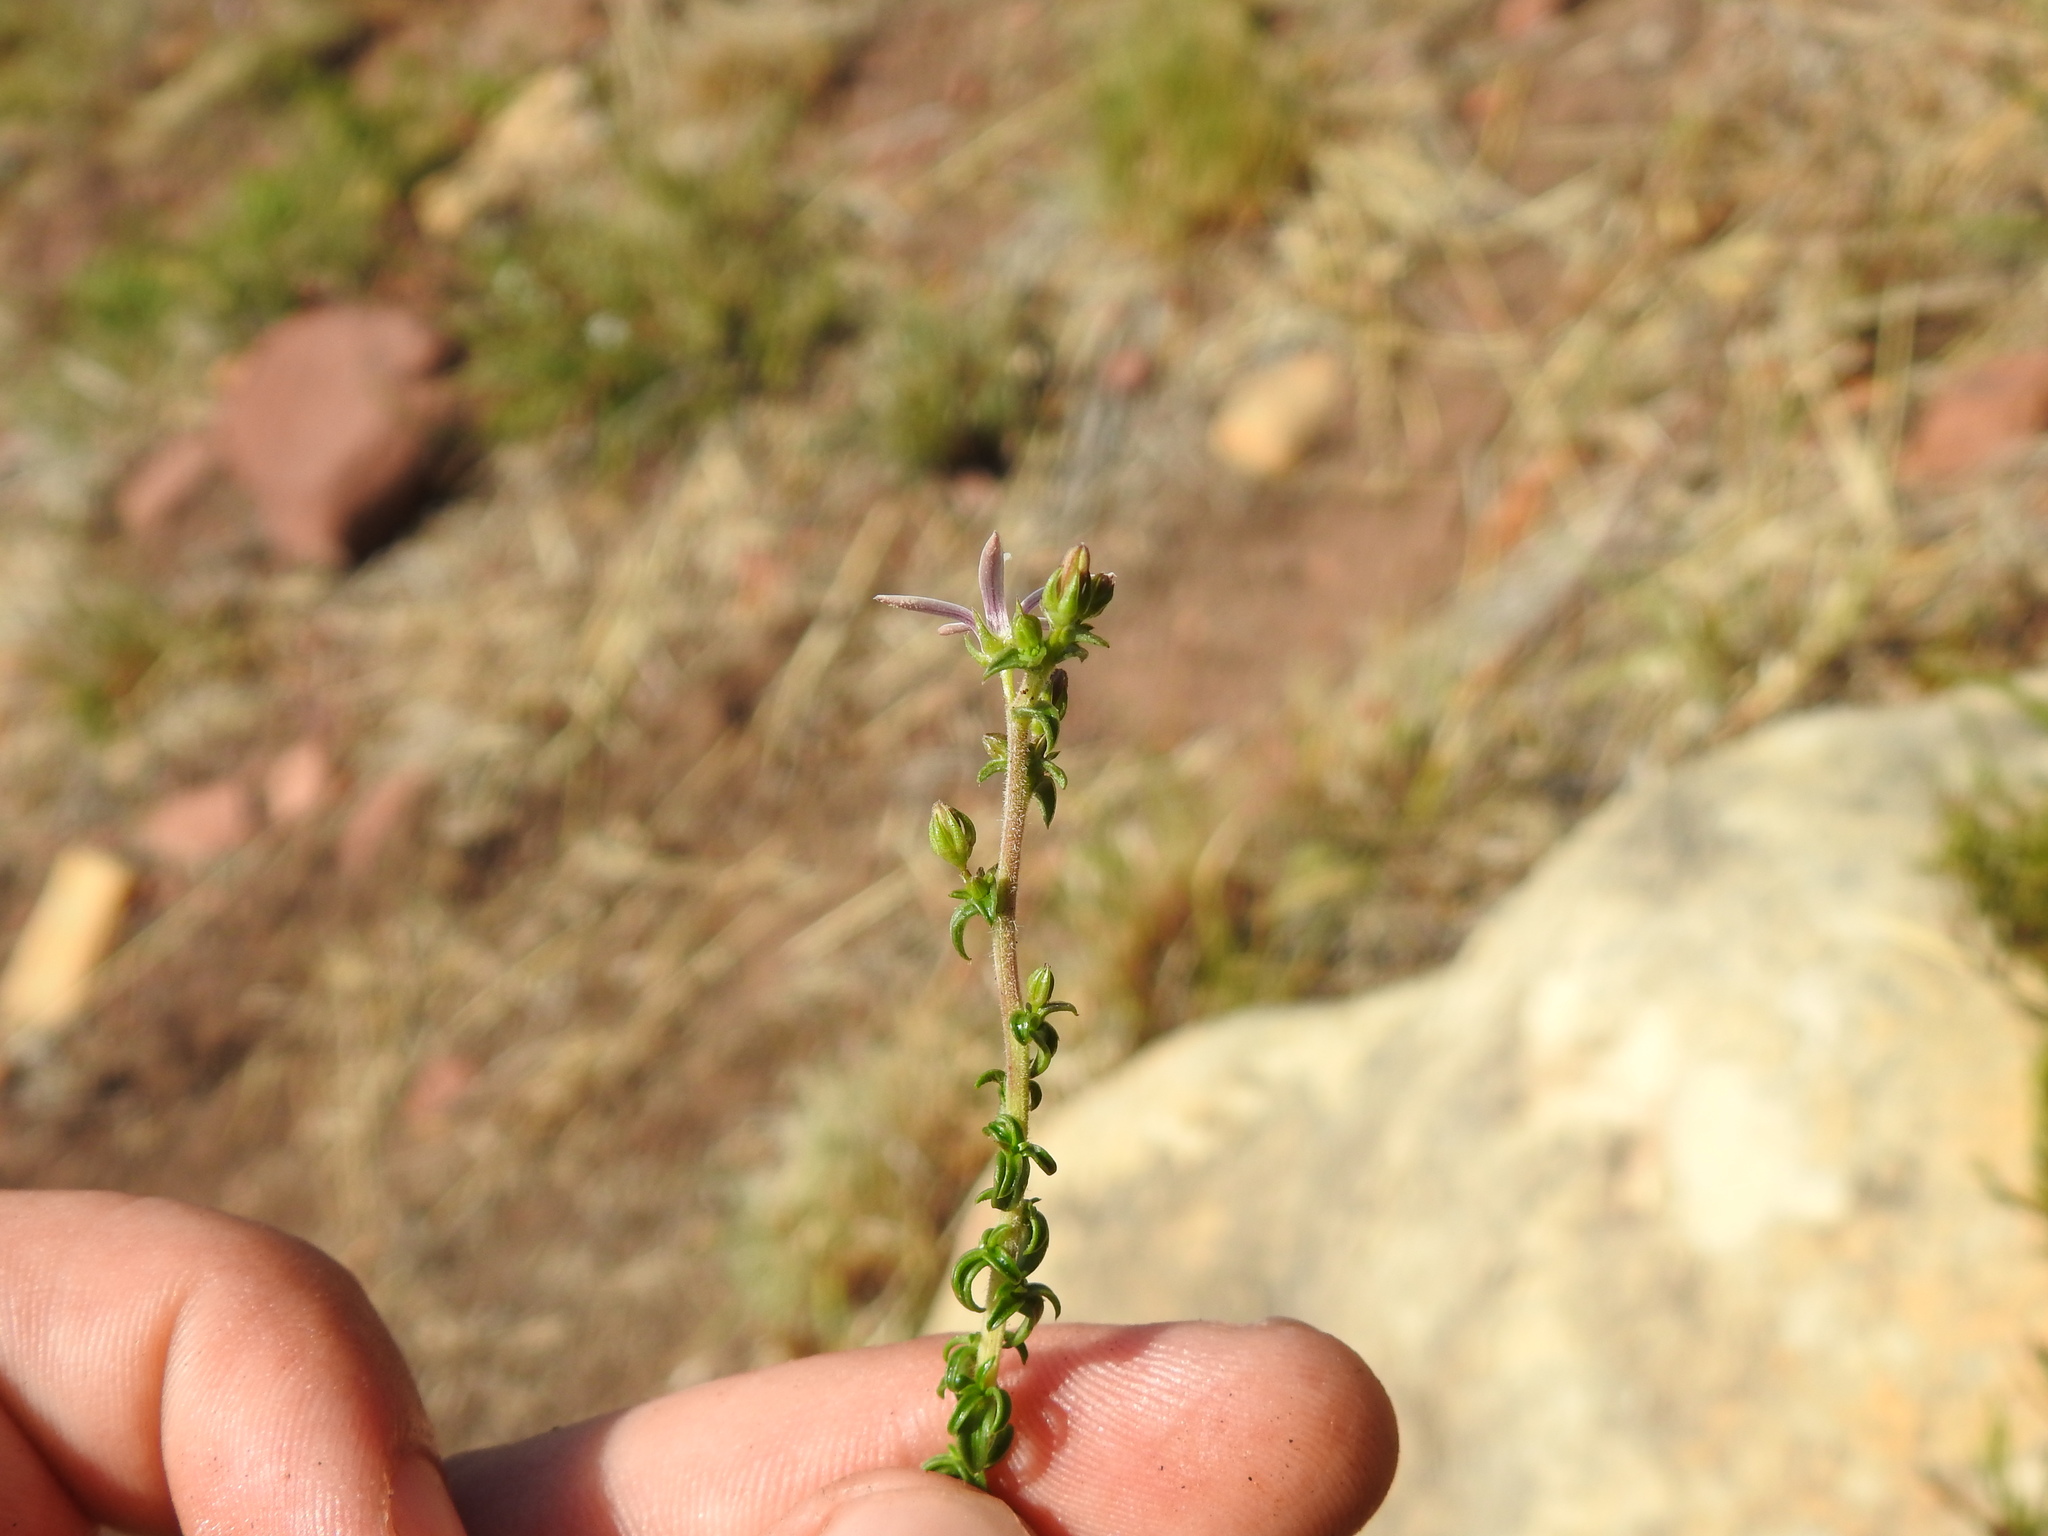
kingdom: Plantae
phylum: Tracheophyta
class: Magnoliopsida
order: Asterales
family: Campanulaceae
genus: Wahlenbergia
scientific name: Wahlenbergia tenella
